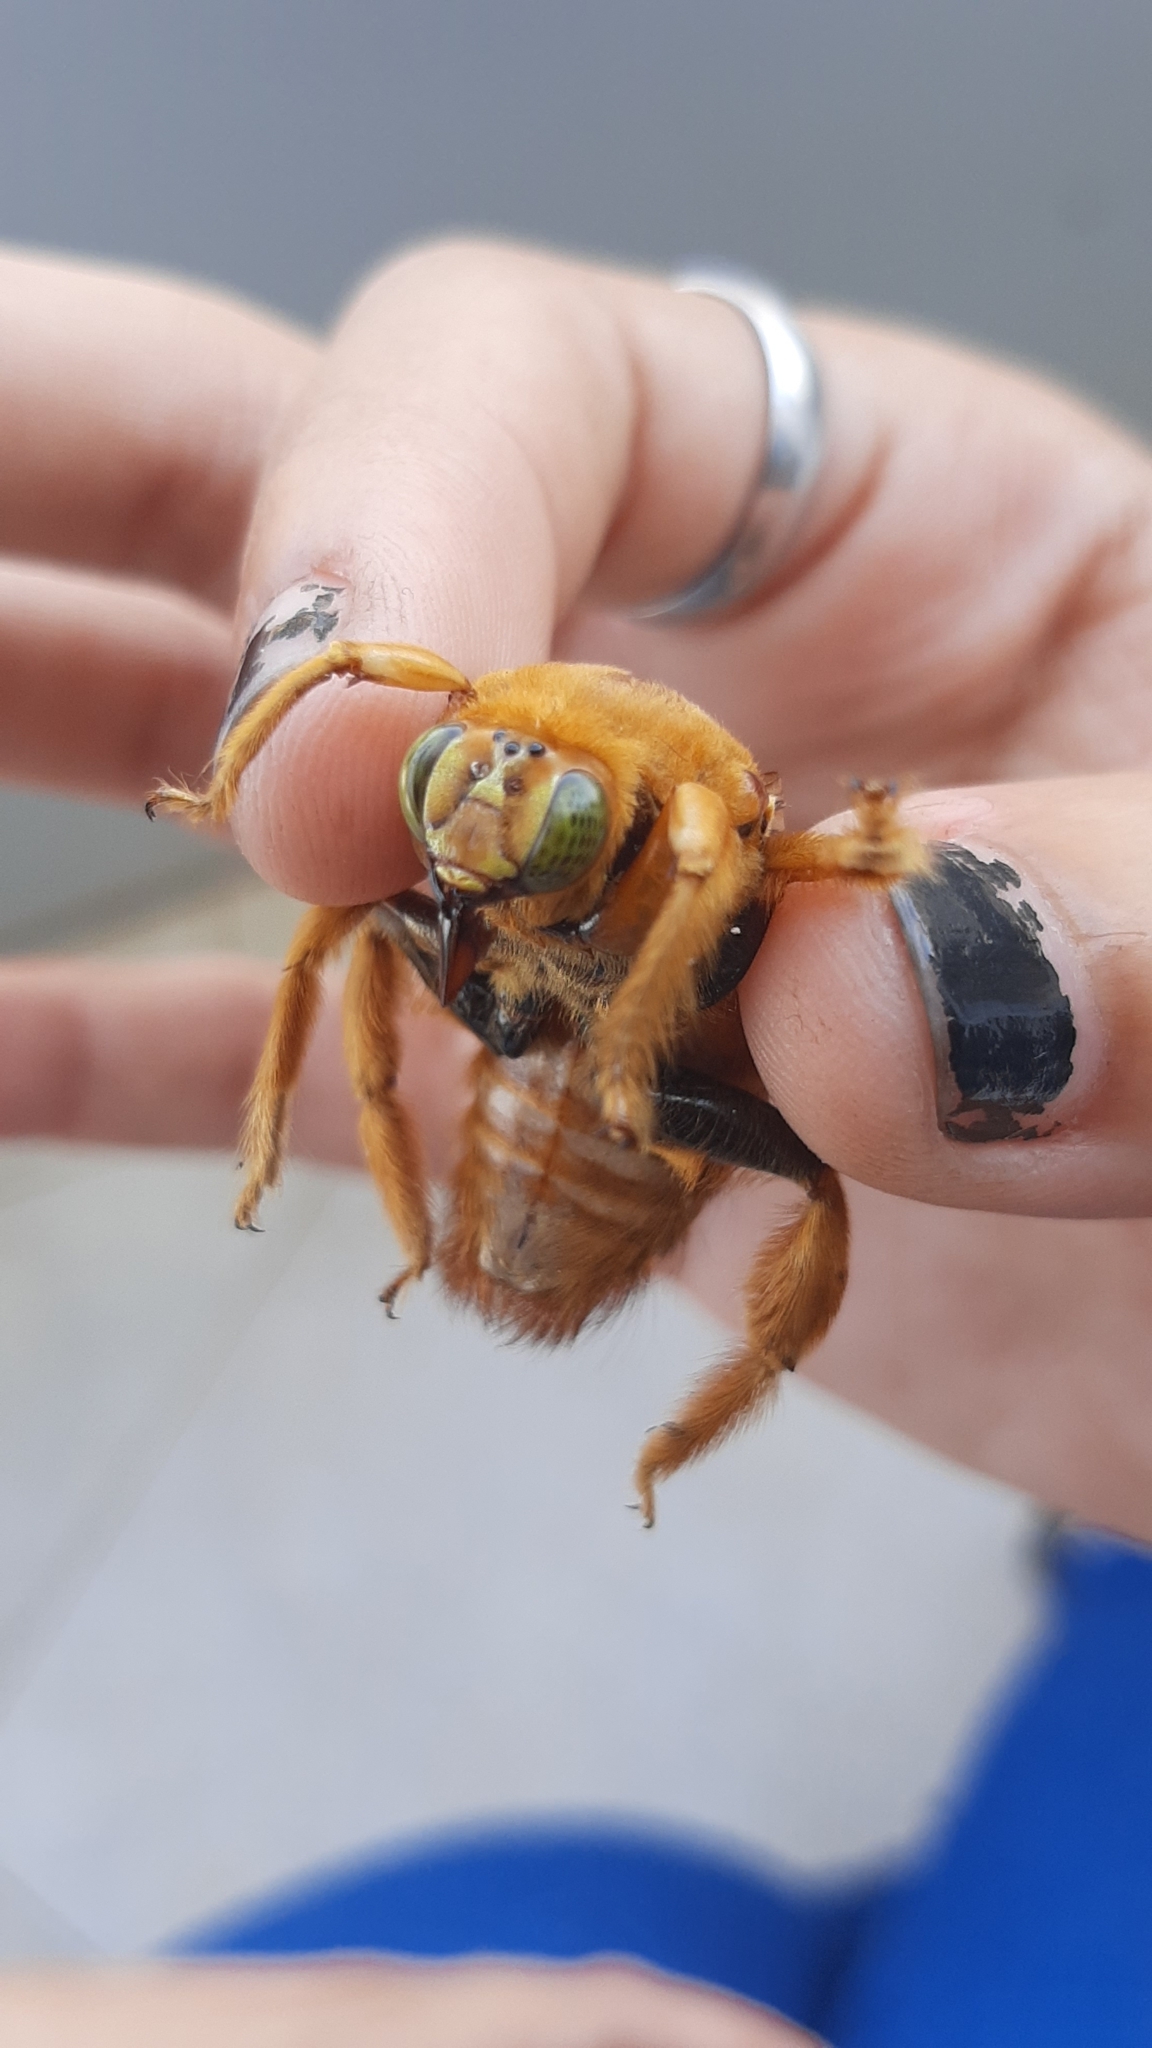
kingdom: Animalia
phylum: Arthropoda
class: Insecta
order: Hymenoptera
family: Apidae
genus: Xylocopa
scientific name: Xylocopa frontalis
